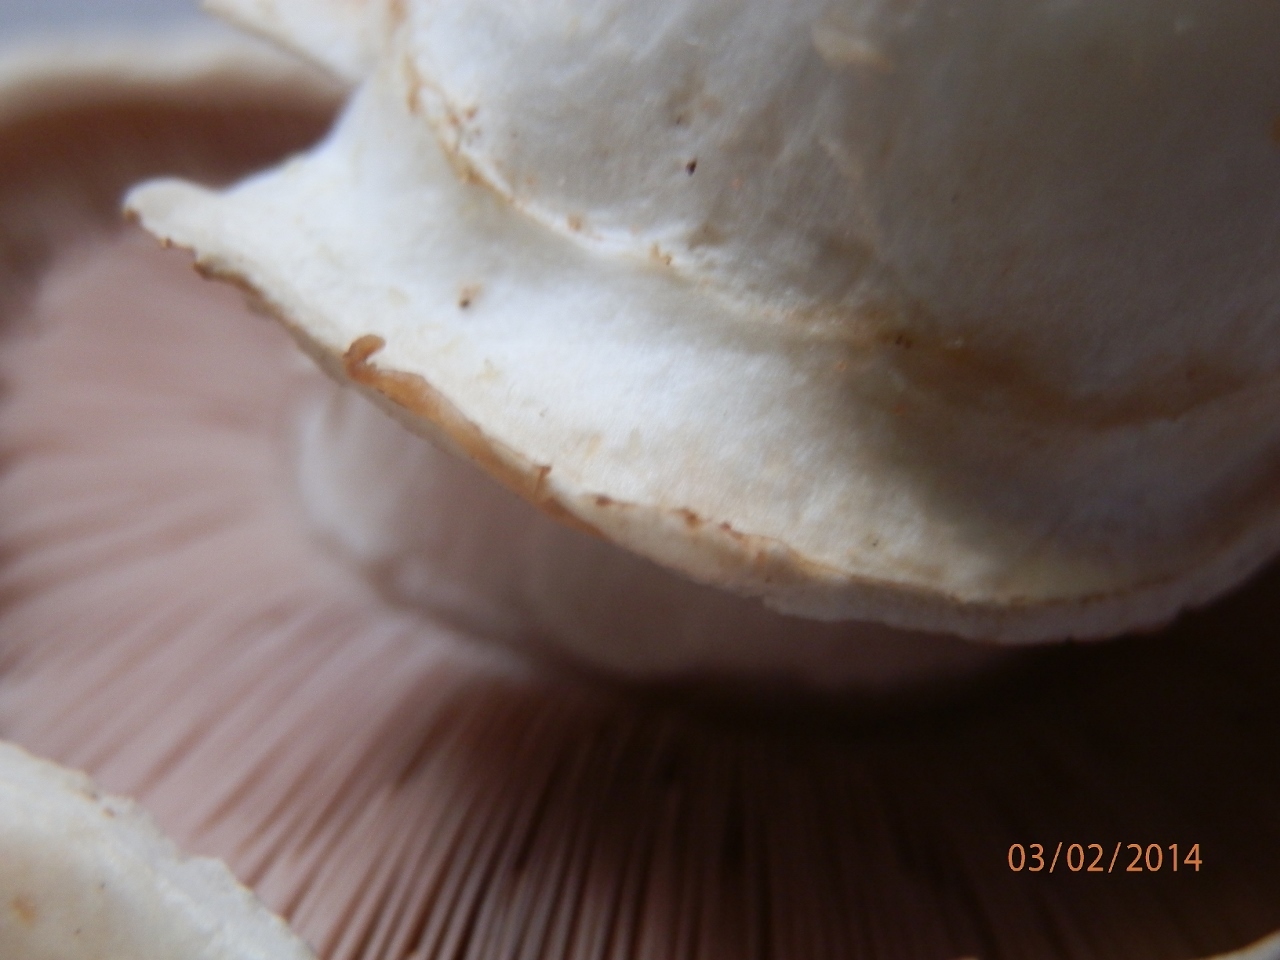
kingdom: Fungi
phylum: Basidiomycota
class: Agaricomycetes
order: Agaricales
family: Agaricaceae
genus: Agaricus
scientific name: Agaricus bitorquis
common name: Pavement mushroom
